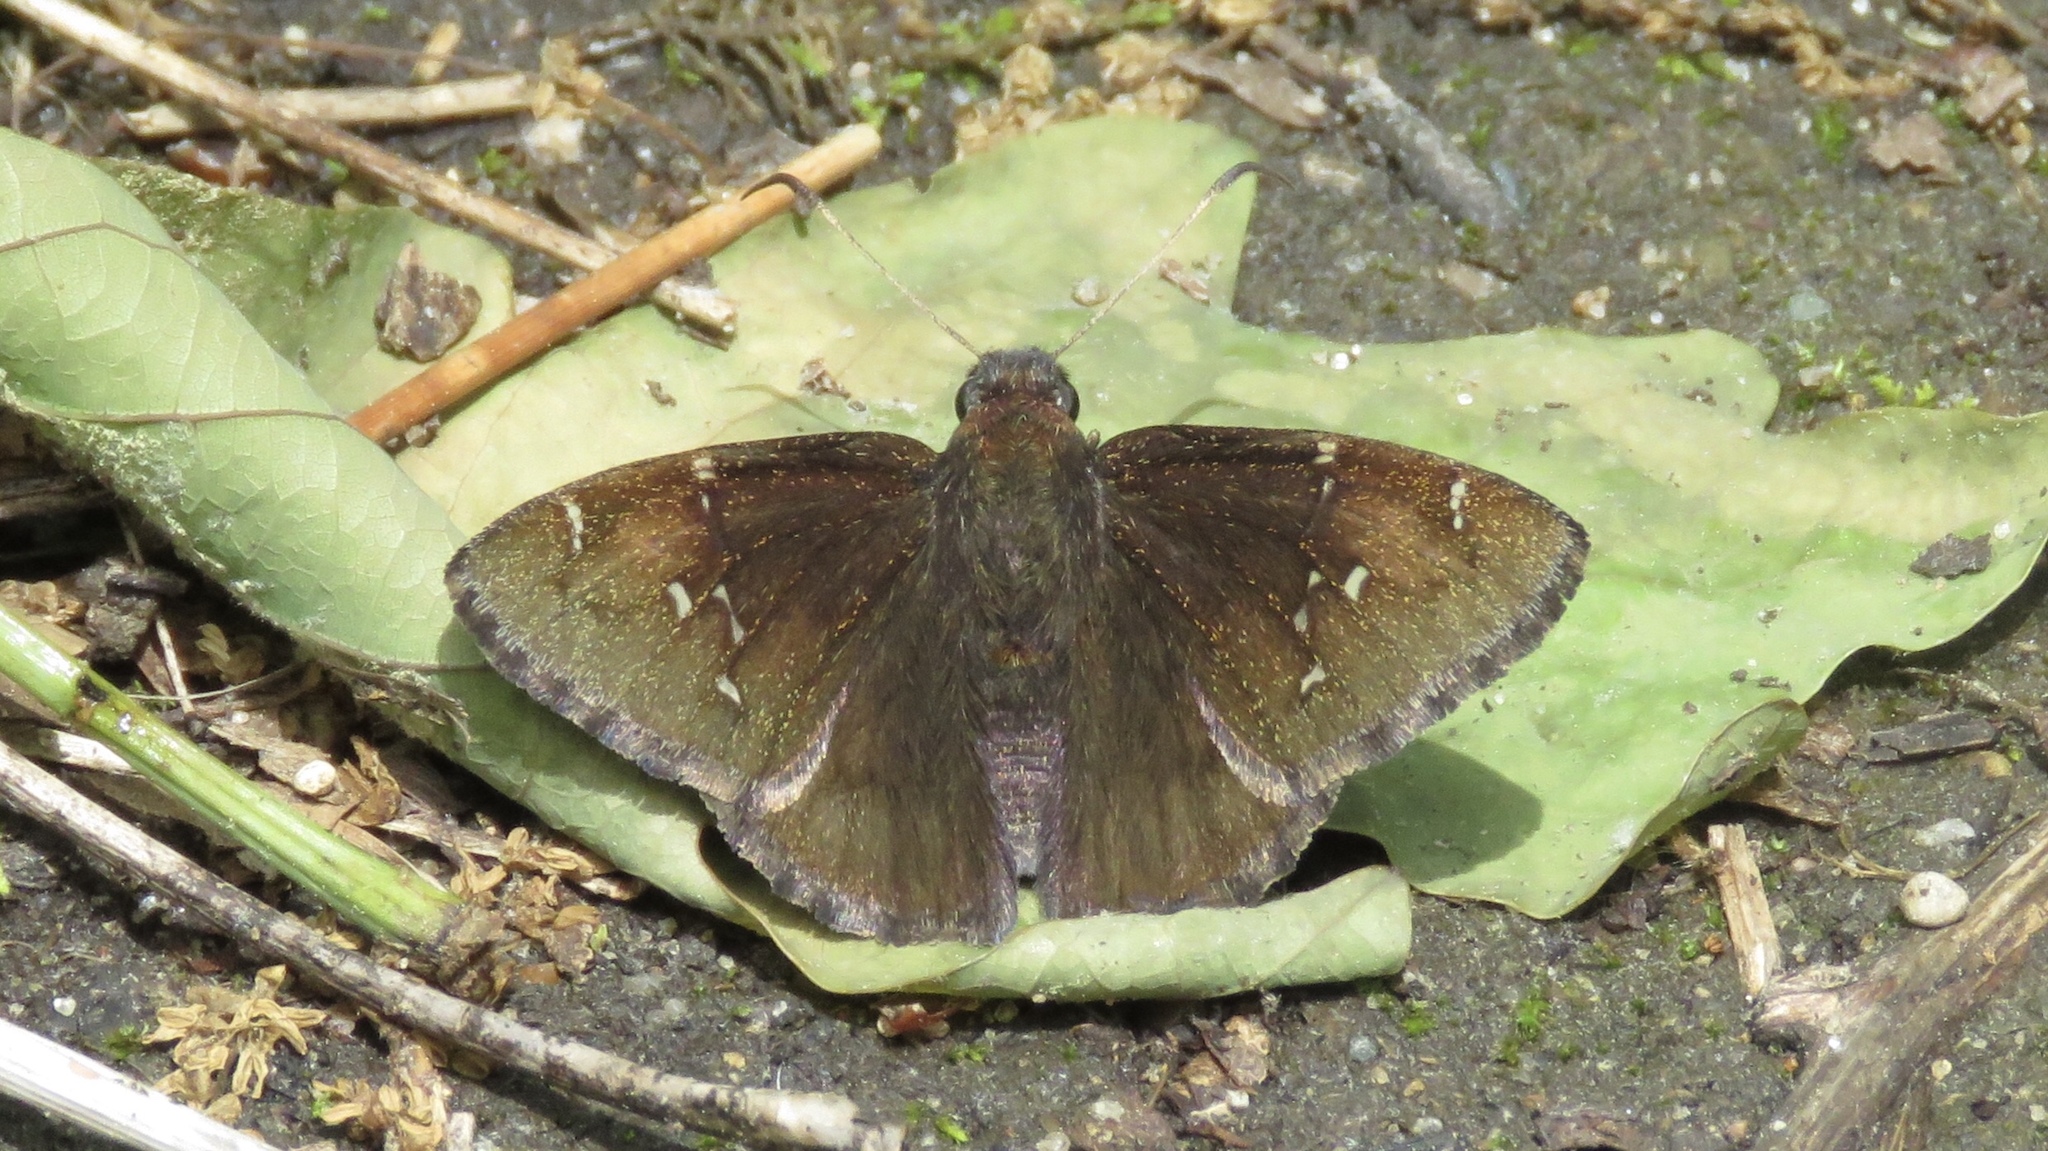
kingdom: Animalia
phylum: Arthropoda
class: Insecta
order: Lepidoptera
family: Hesperiidae
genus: Thorybes
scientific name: Thorybes pylades
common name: Northern cloudywing
